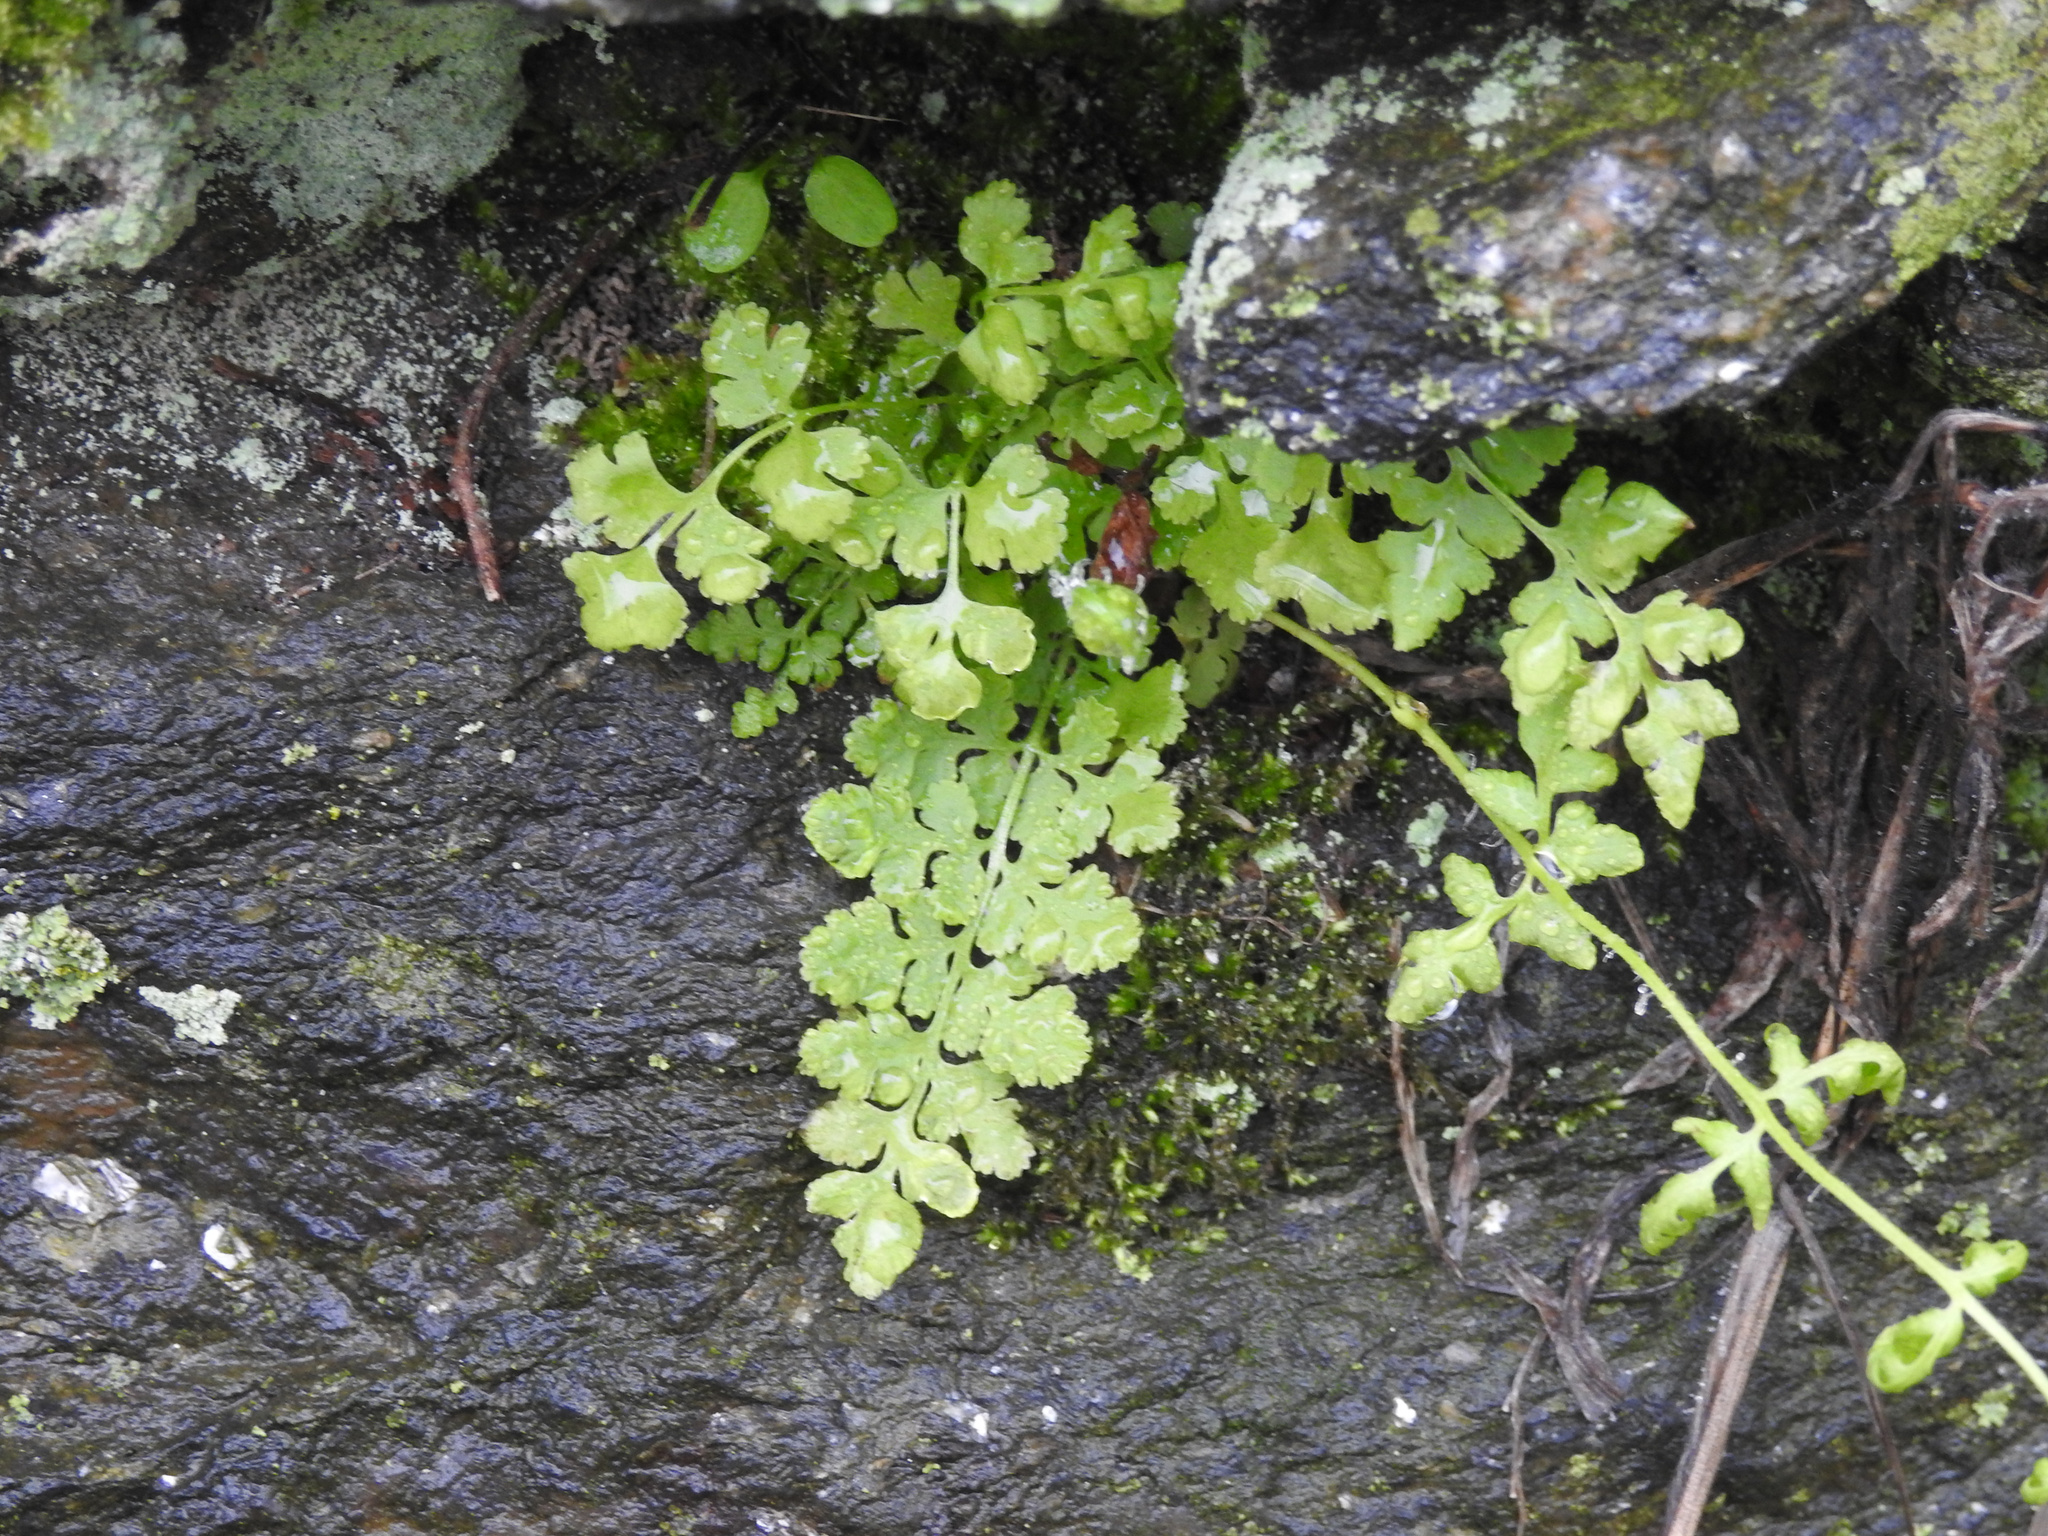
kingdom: Plantae
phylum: Tracheophyta
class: Polypodiopsida
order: Polypodiales
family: Woodsiaceae
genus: Physematium
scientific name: Physematium obtusum
